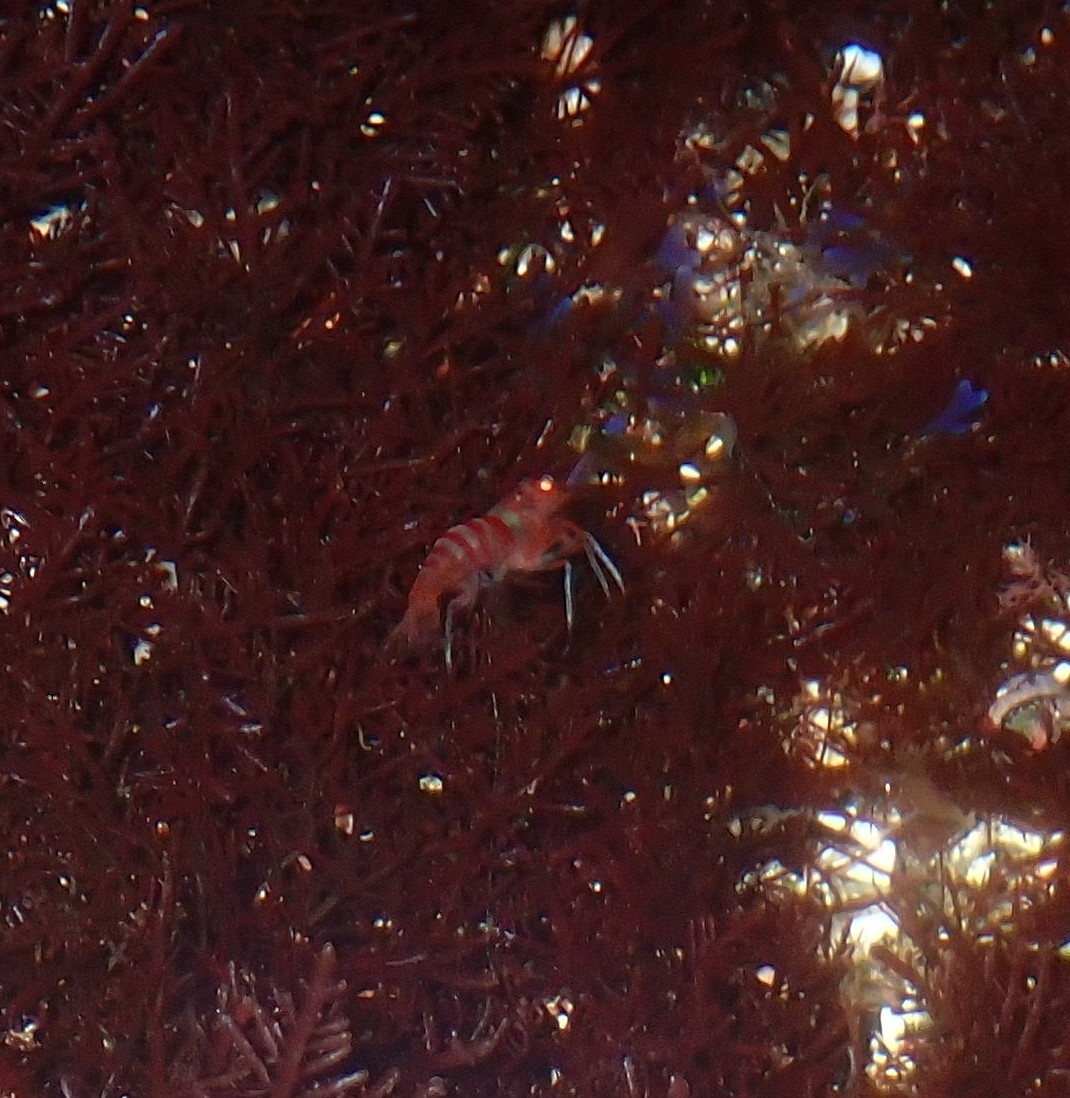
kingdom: Animalia
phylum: Arthropoda
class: Malacostraca
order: Decapoda
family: Lysmatidae
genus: Lysmata
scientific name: Lysmata nilita
